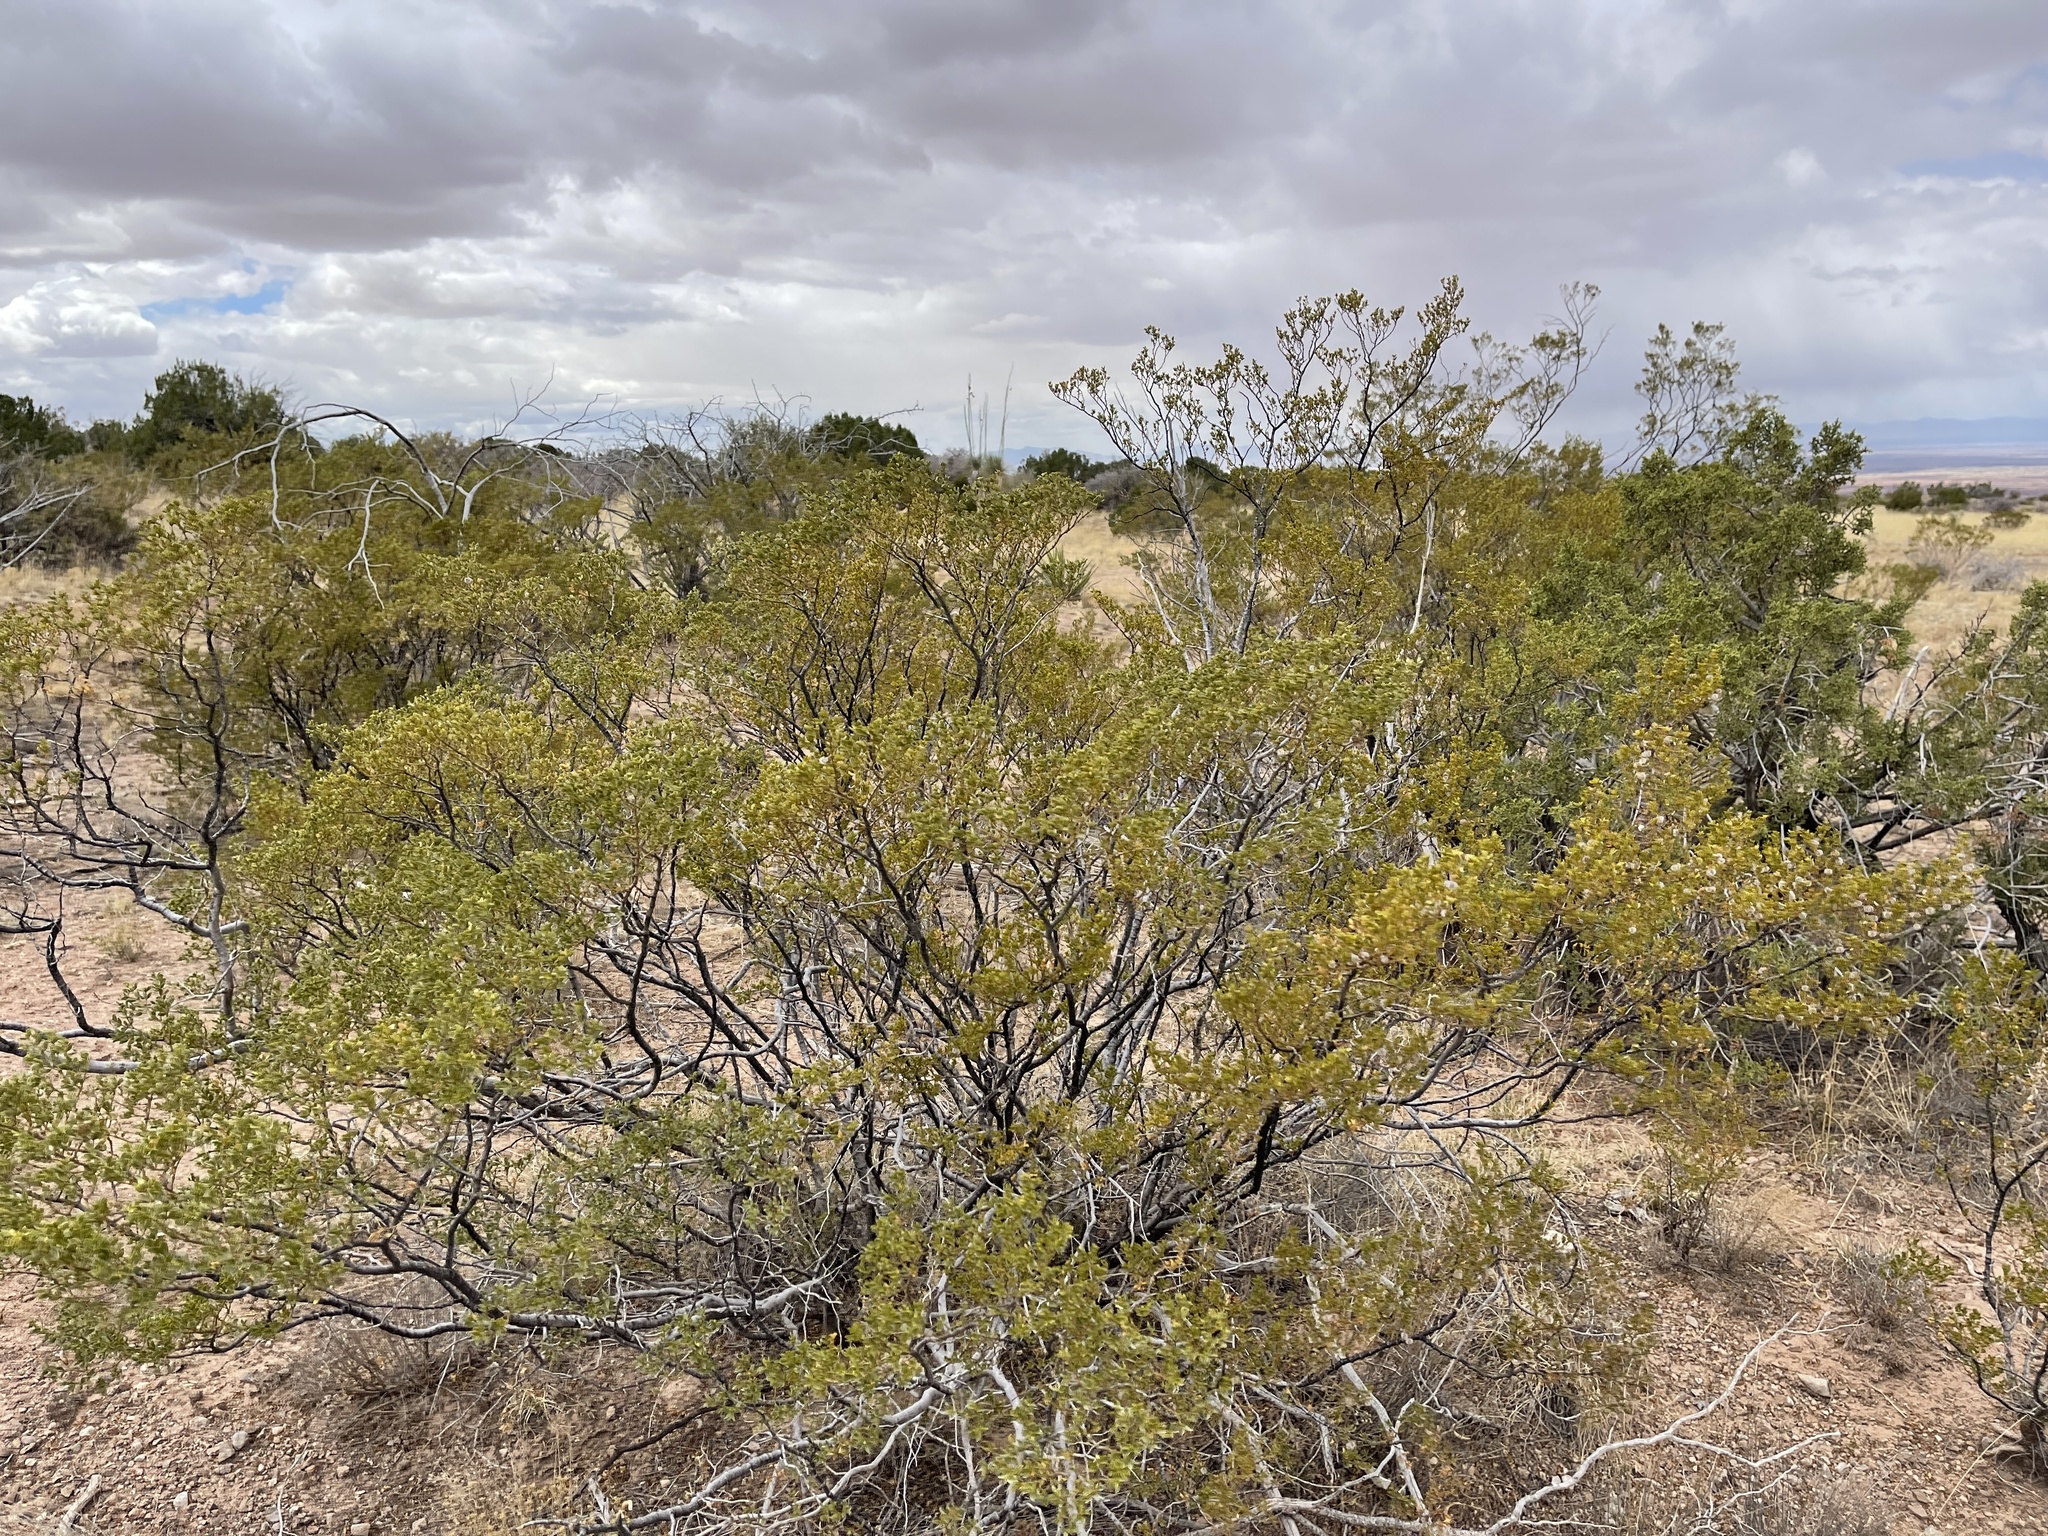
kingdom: Plantae
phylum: Tracheophyta
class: Magnoliopsida
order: Zygophyllales
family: Zygophyllaceae
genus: Larrea
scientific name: Larrea tridentata
